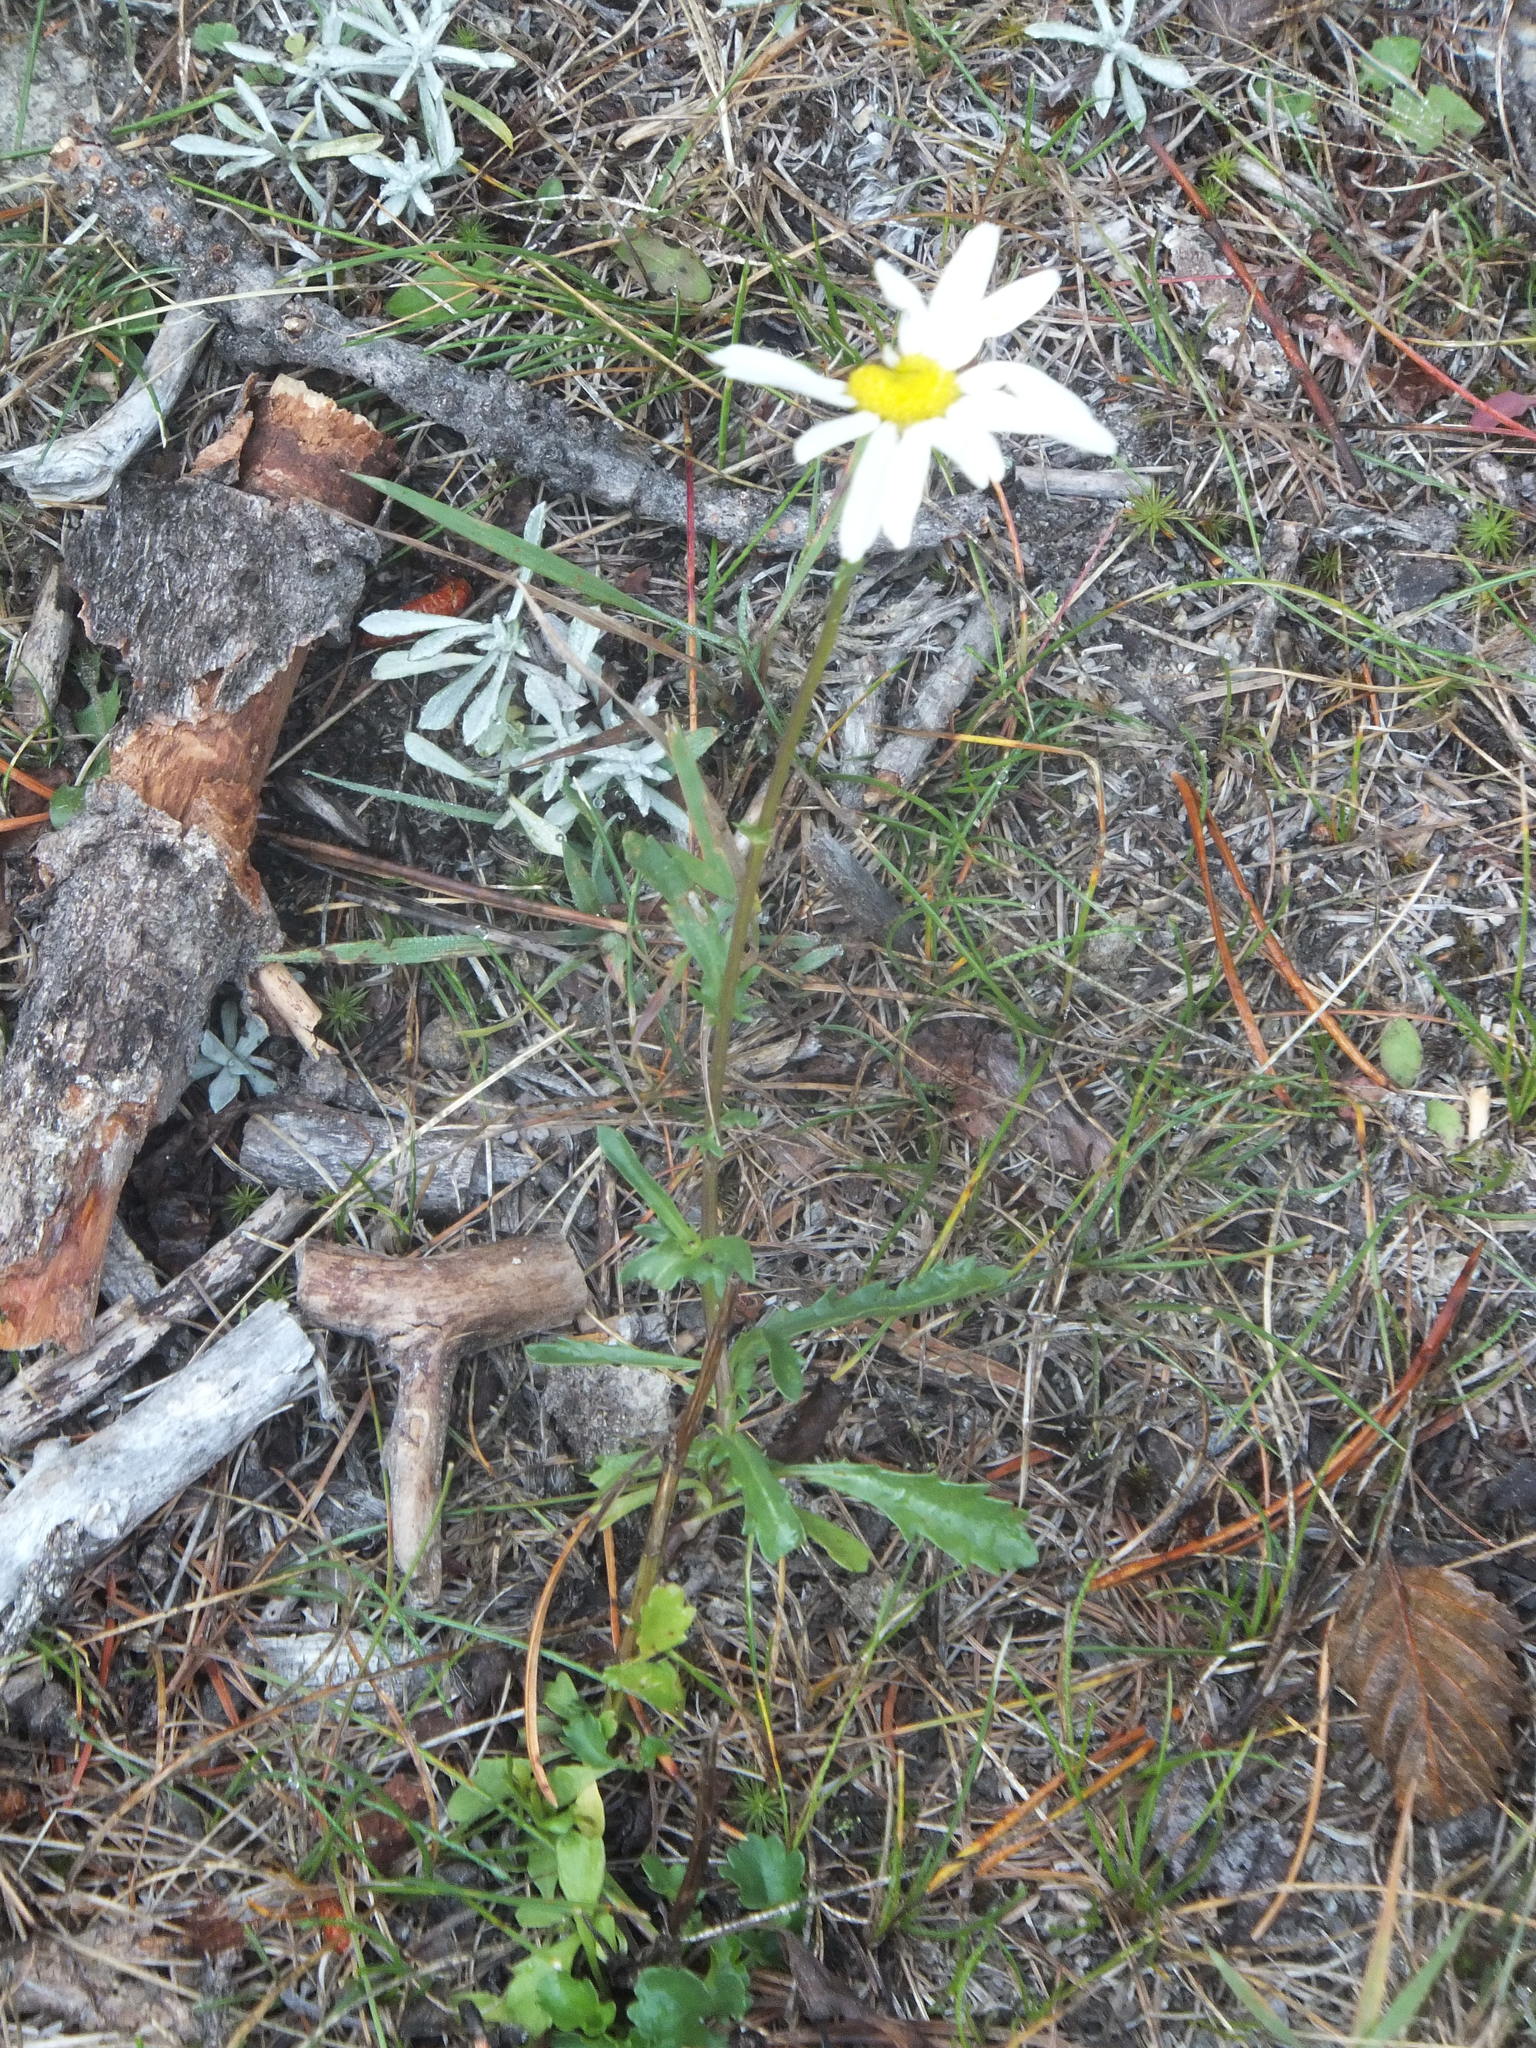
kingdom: Plantae
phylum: Tracheophyta
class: Magnoliopsida
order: Asterales
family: Asteraceae
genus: Leucanthemum
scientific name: Leucanthemum vulgare
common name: Oxeye daisy
